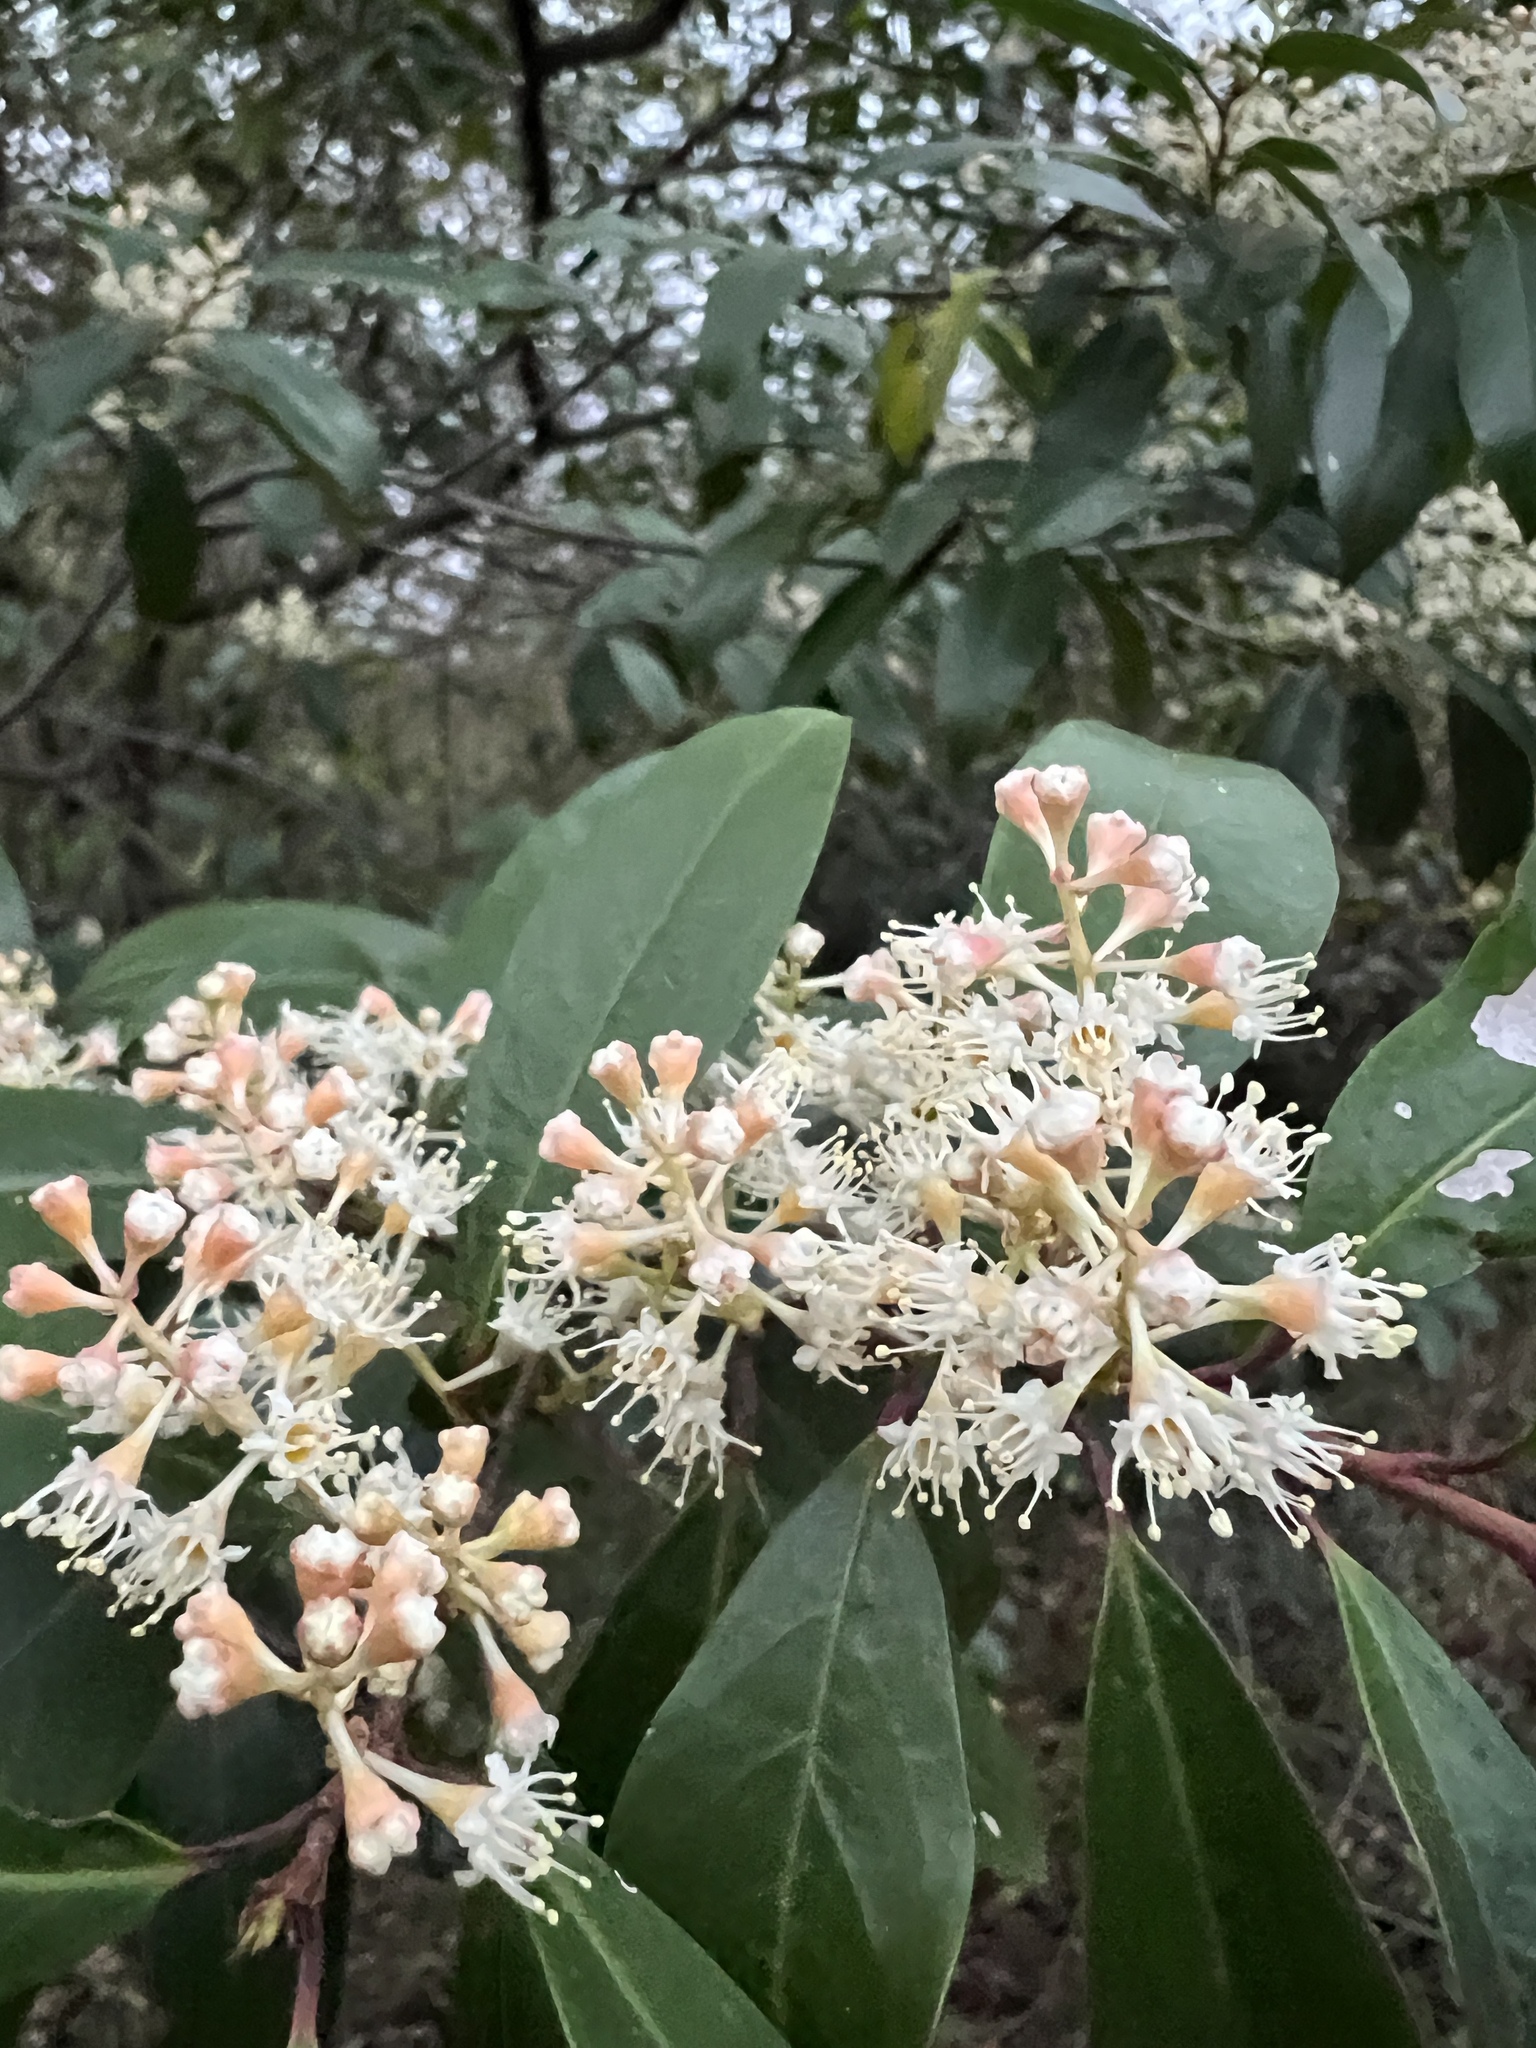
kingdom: Plantae
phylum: Tracheophyta
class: Magnoliopsida
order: Rosales
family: Rosaceae
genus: Prunus
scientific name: Prunus caroliniana
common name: Carolina laurel cherry
